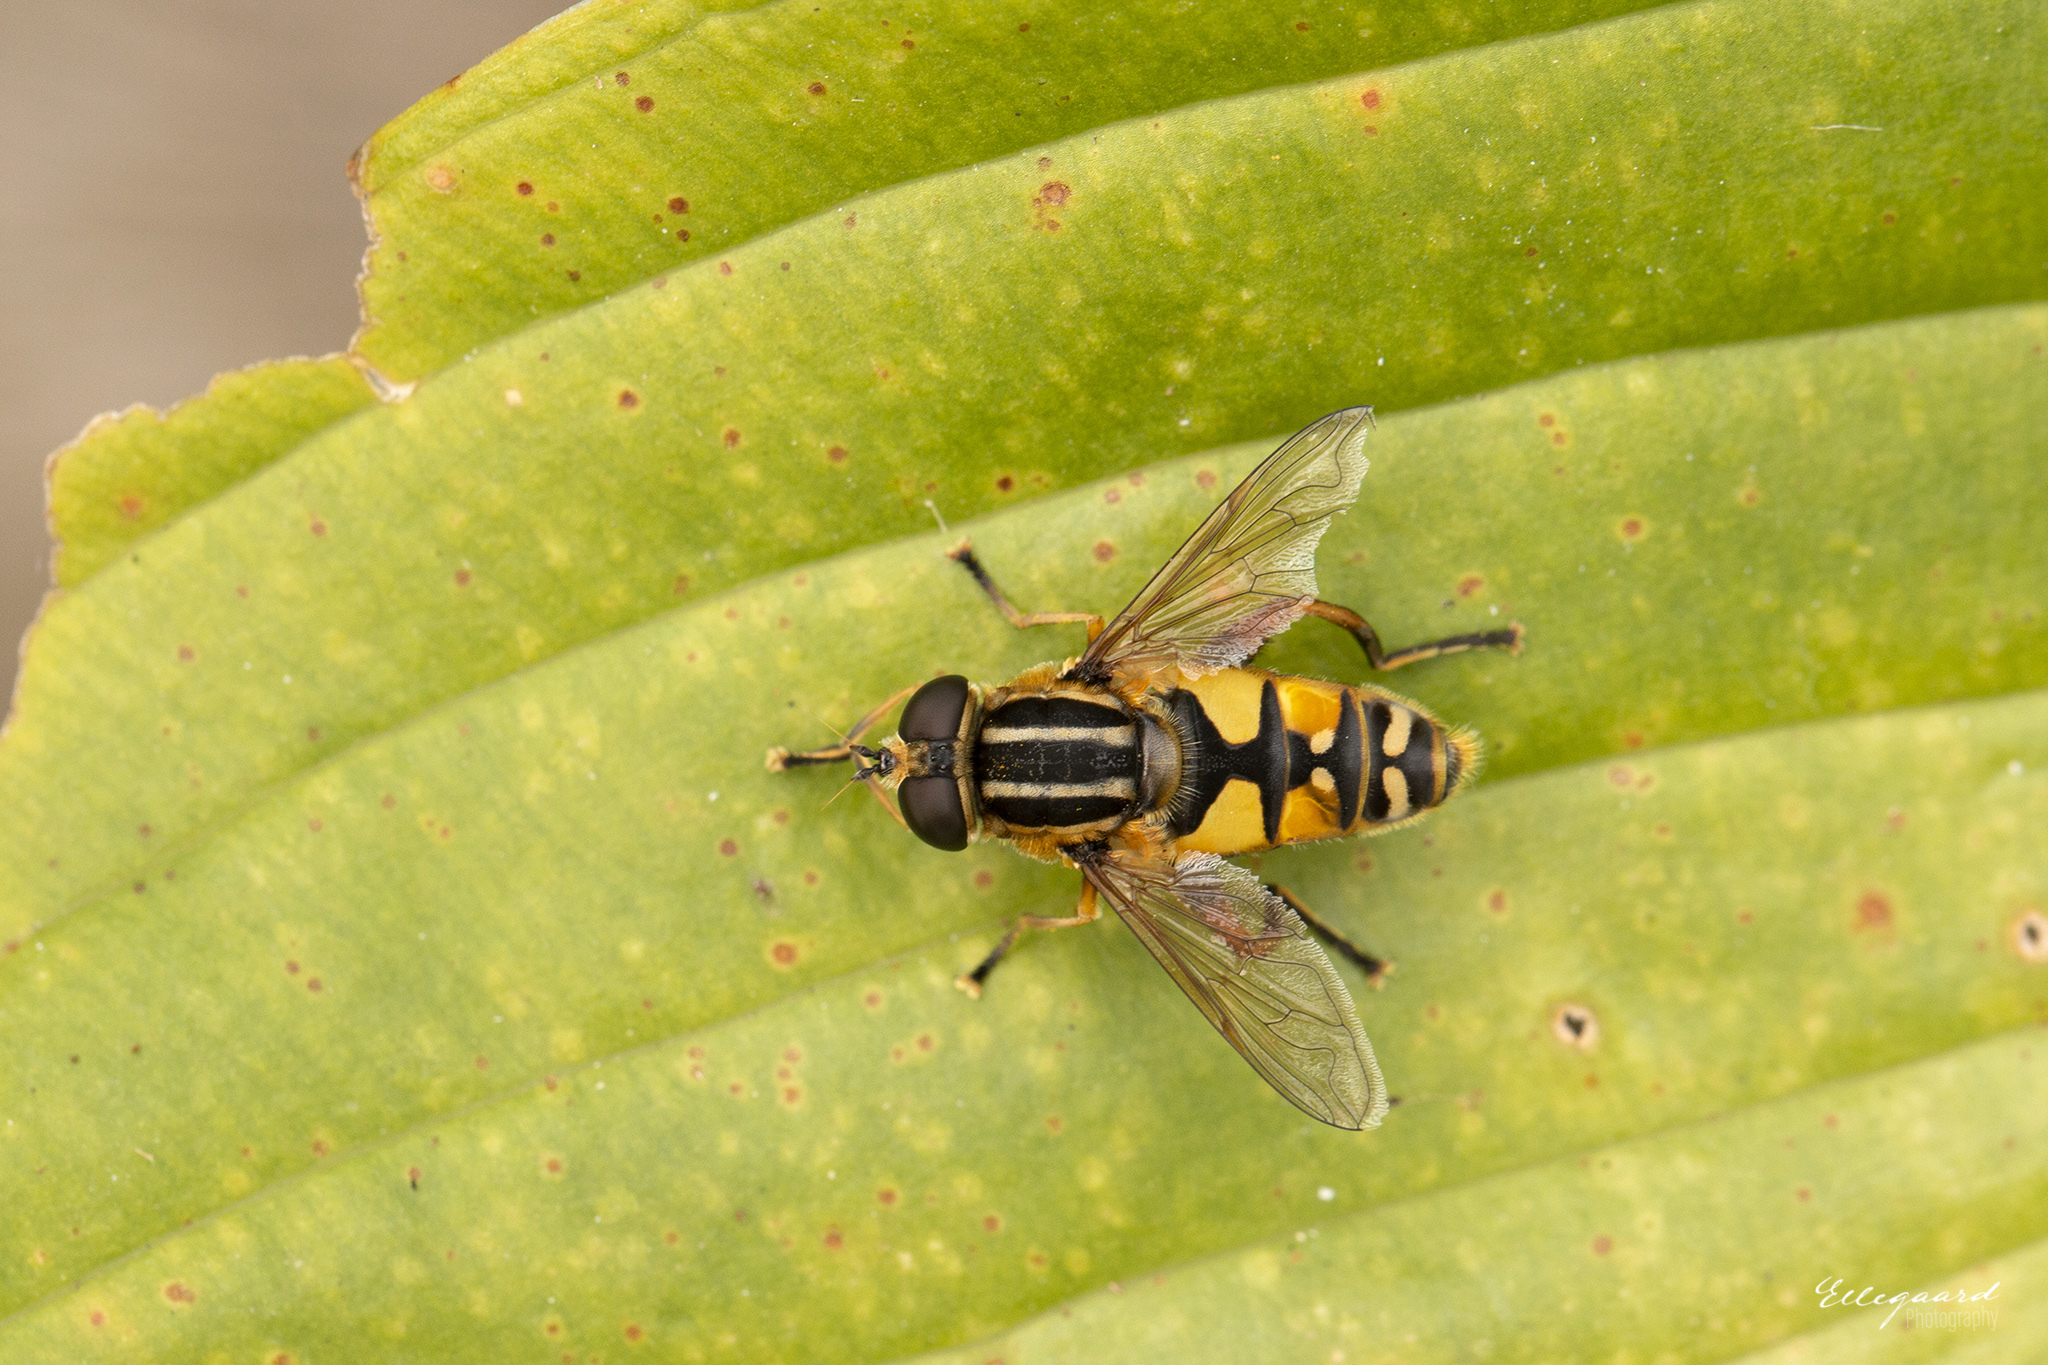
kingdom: Animalia
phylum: Arthropoda
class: Insecta
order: Diptera
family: Syrphidae
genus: Helophilus
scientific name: Helophilus pendulus
